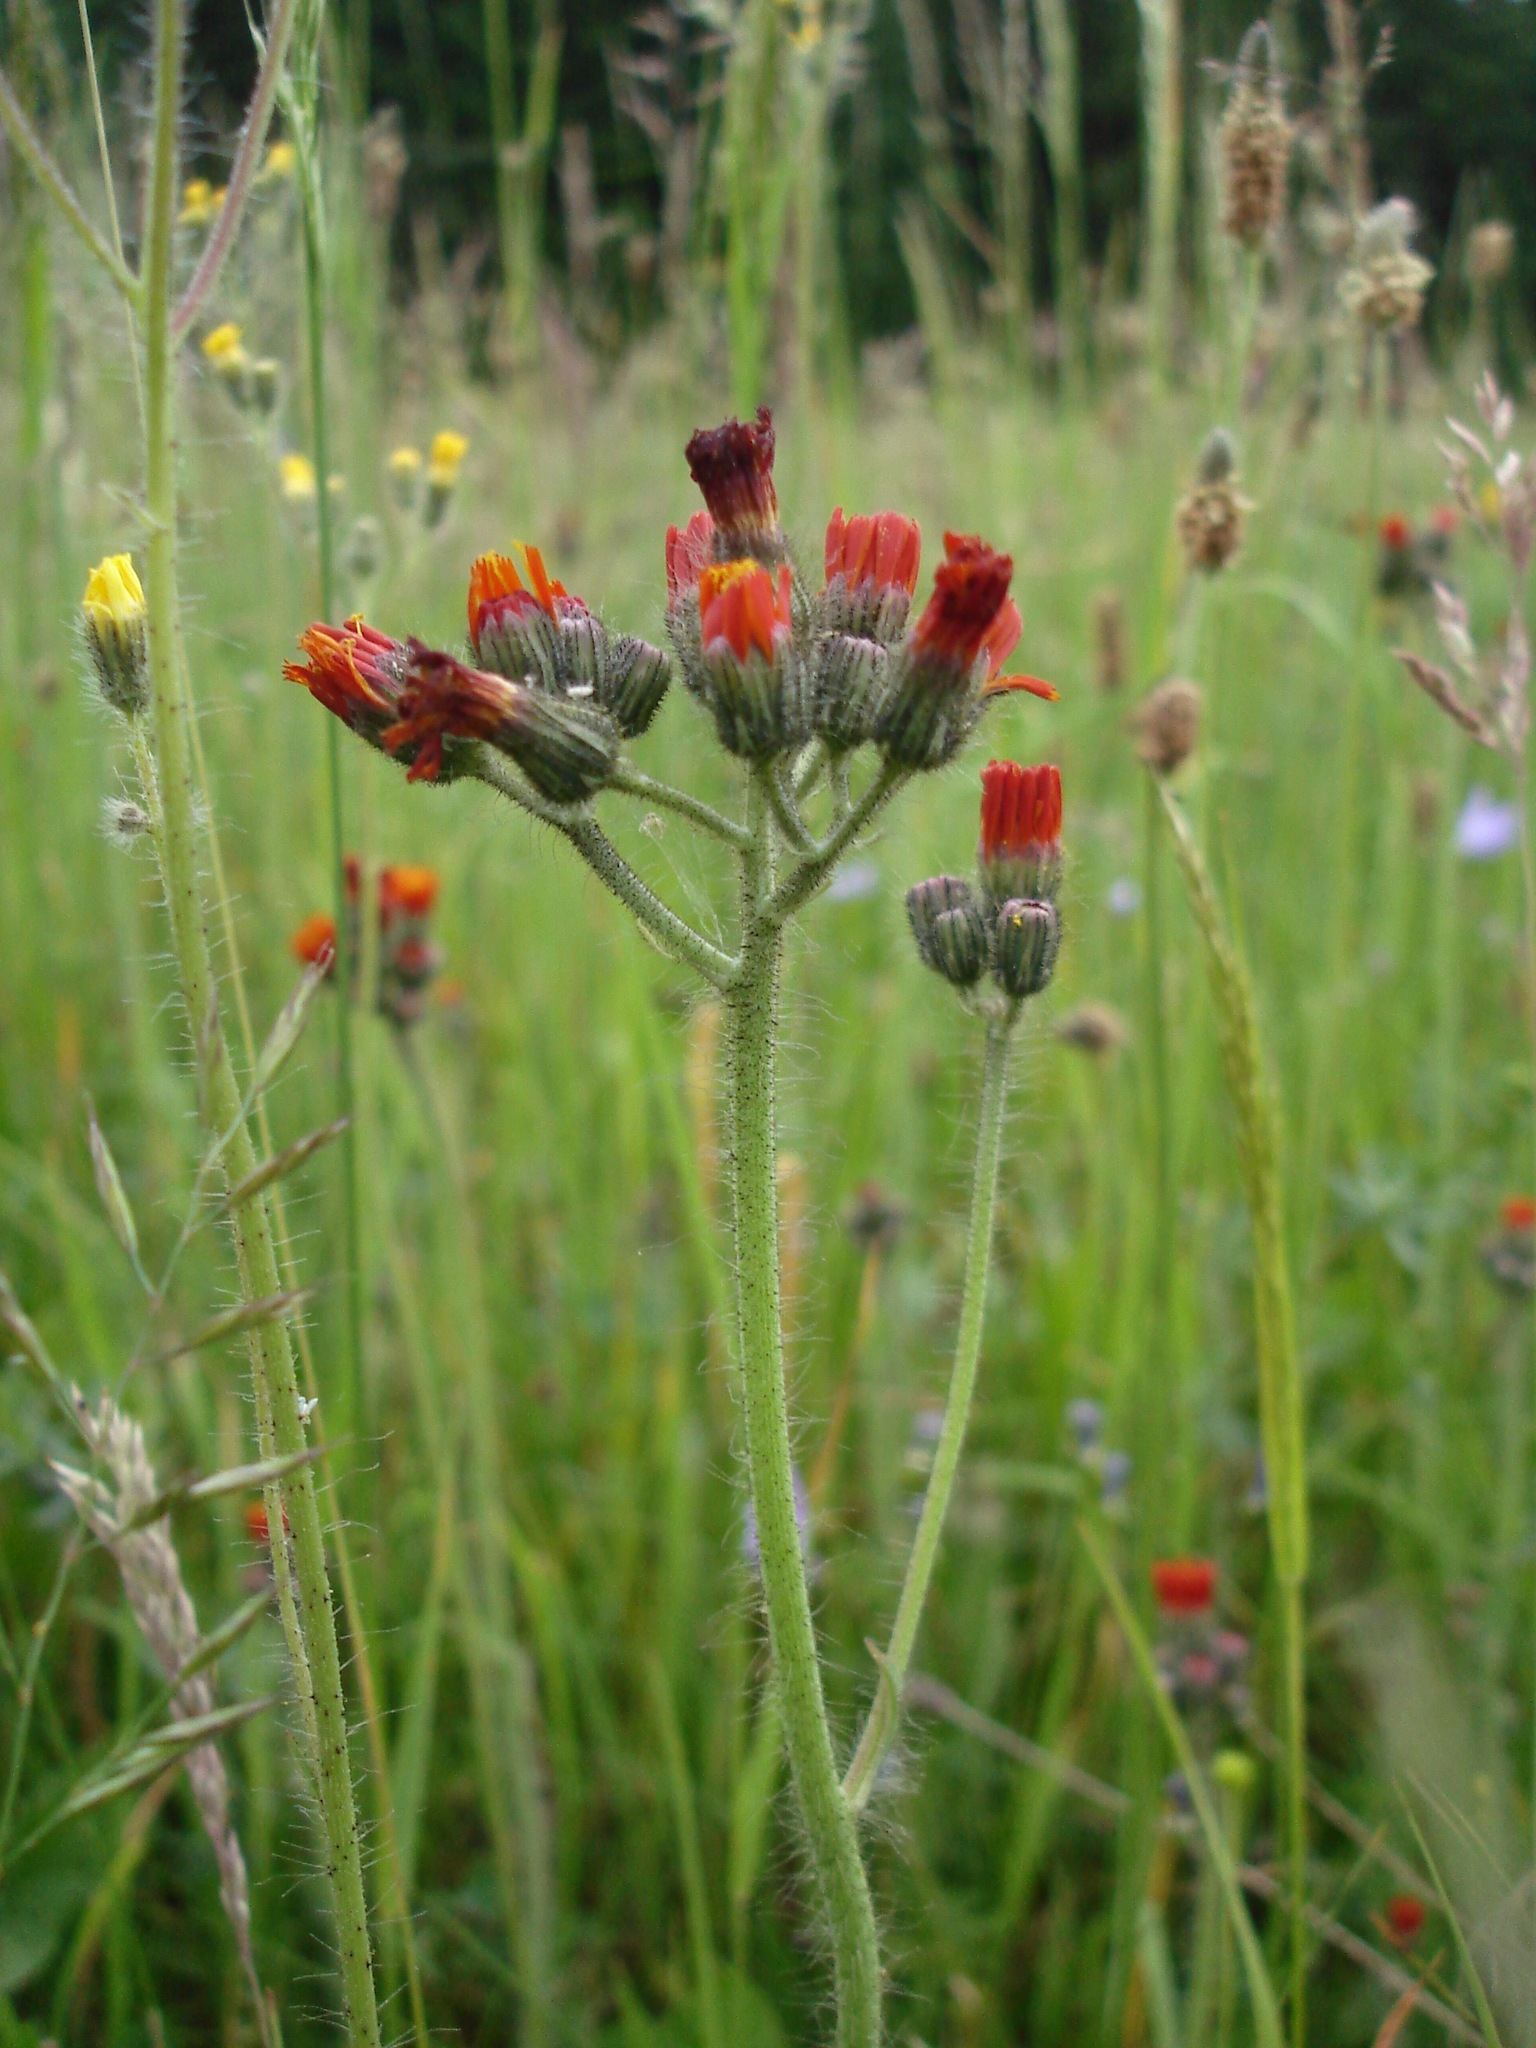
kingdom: Plantae
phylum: Tracheophyta
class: Magnoliopsida
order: Asterales
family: Asteraceae
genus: Pilosella
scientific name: Pilosella aurantiaca
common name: Fox-and-cubs
